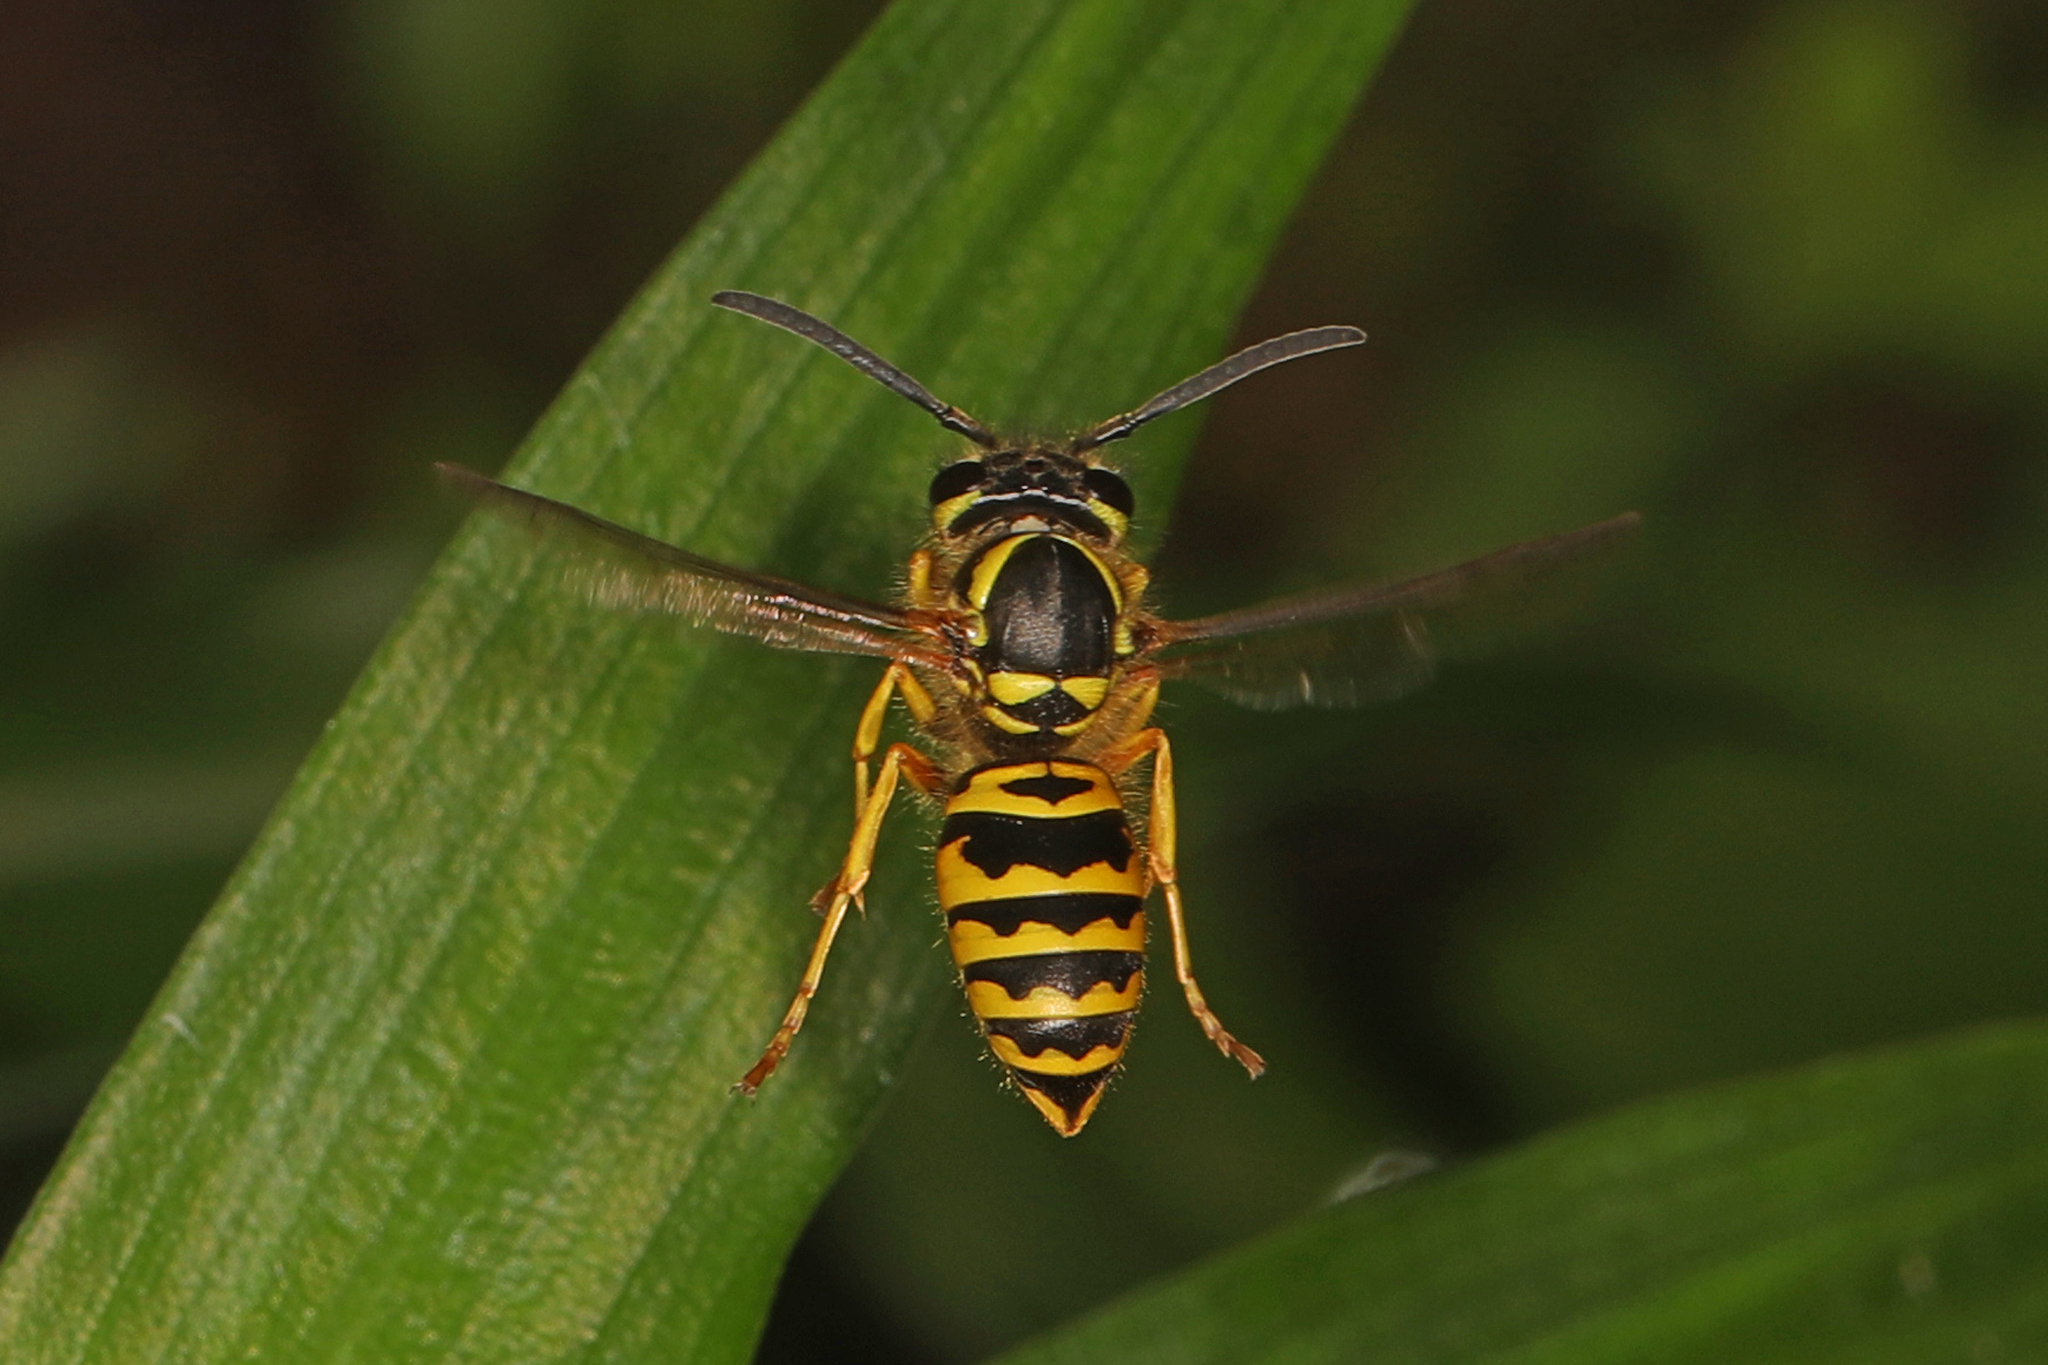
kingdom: Animalia
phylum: Arthropoda
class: Insecta
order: Hymenoptera
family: Vespidae
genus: Vespula
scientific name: Vespula maculifrons
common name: Eastern yellowjacket
